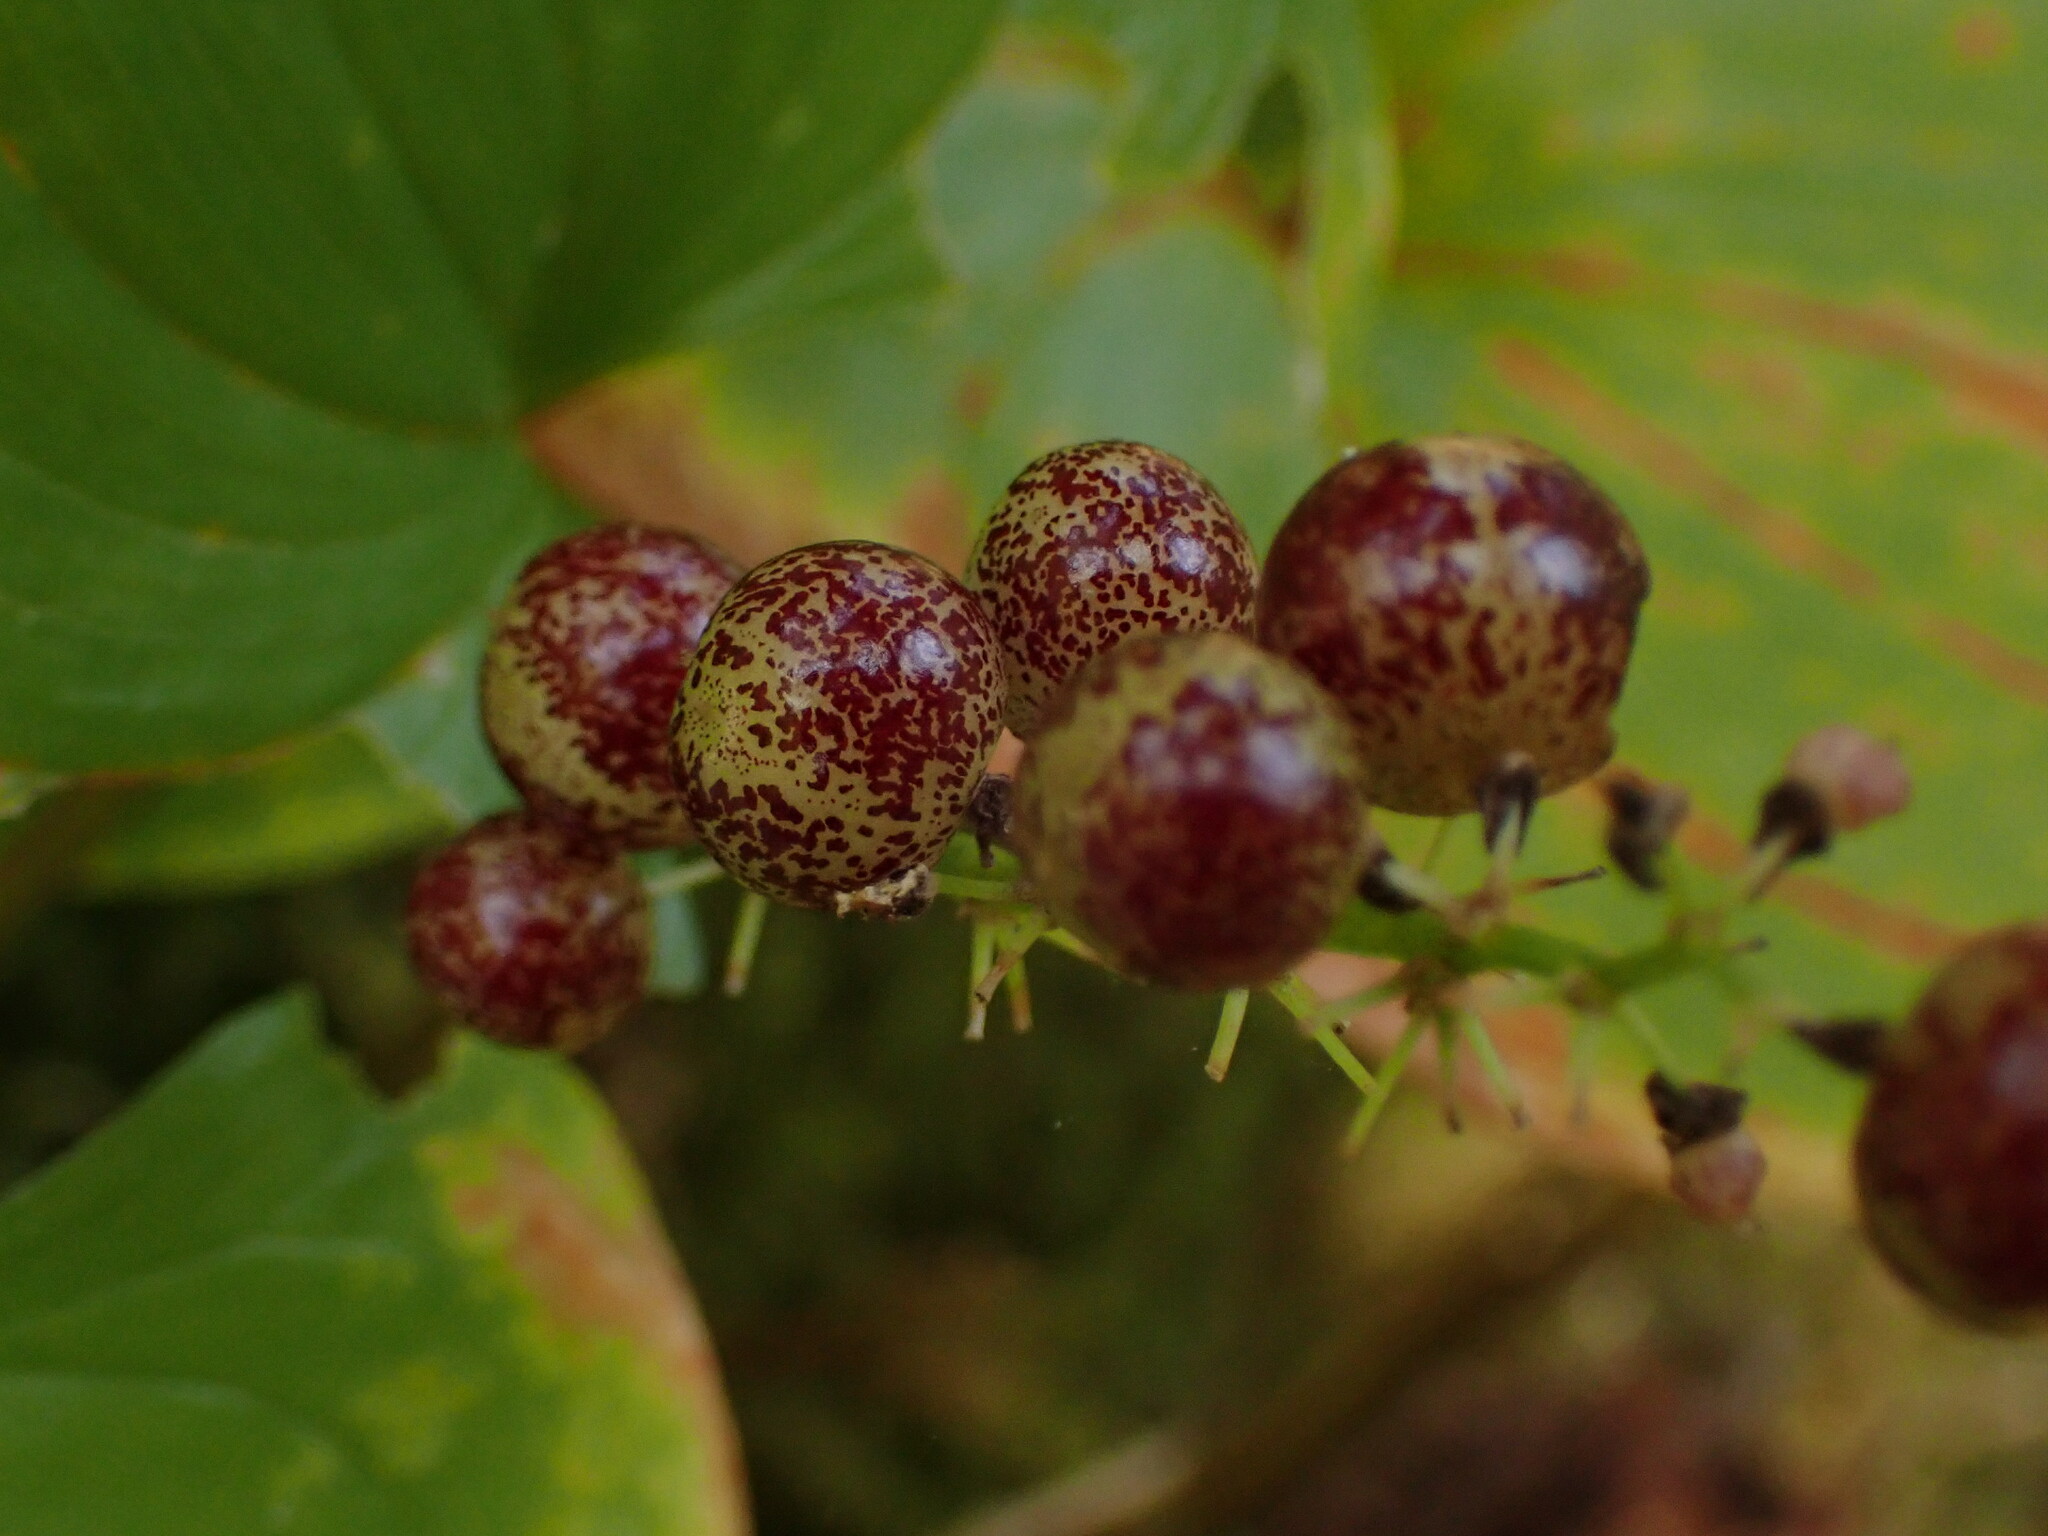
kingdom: Plantae
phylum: Tracheophyta
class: Liliopsida
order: Asparagales
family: Asparagaceae
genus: Maianthemum
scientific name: Maianthemum dilatatum
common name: False lily-of-the-valley
